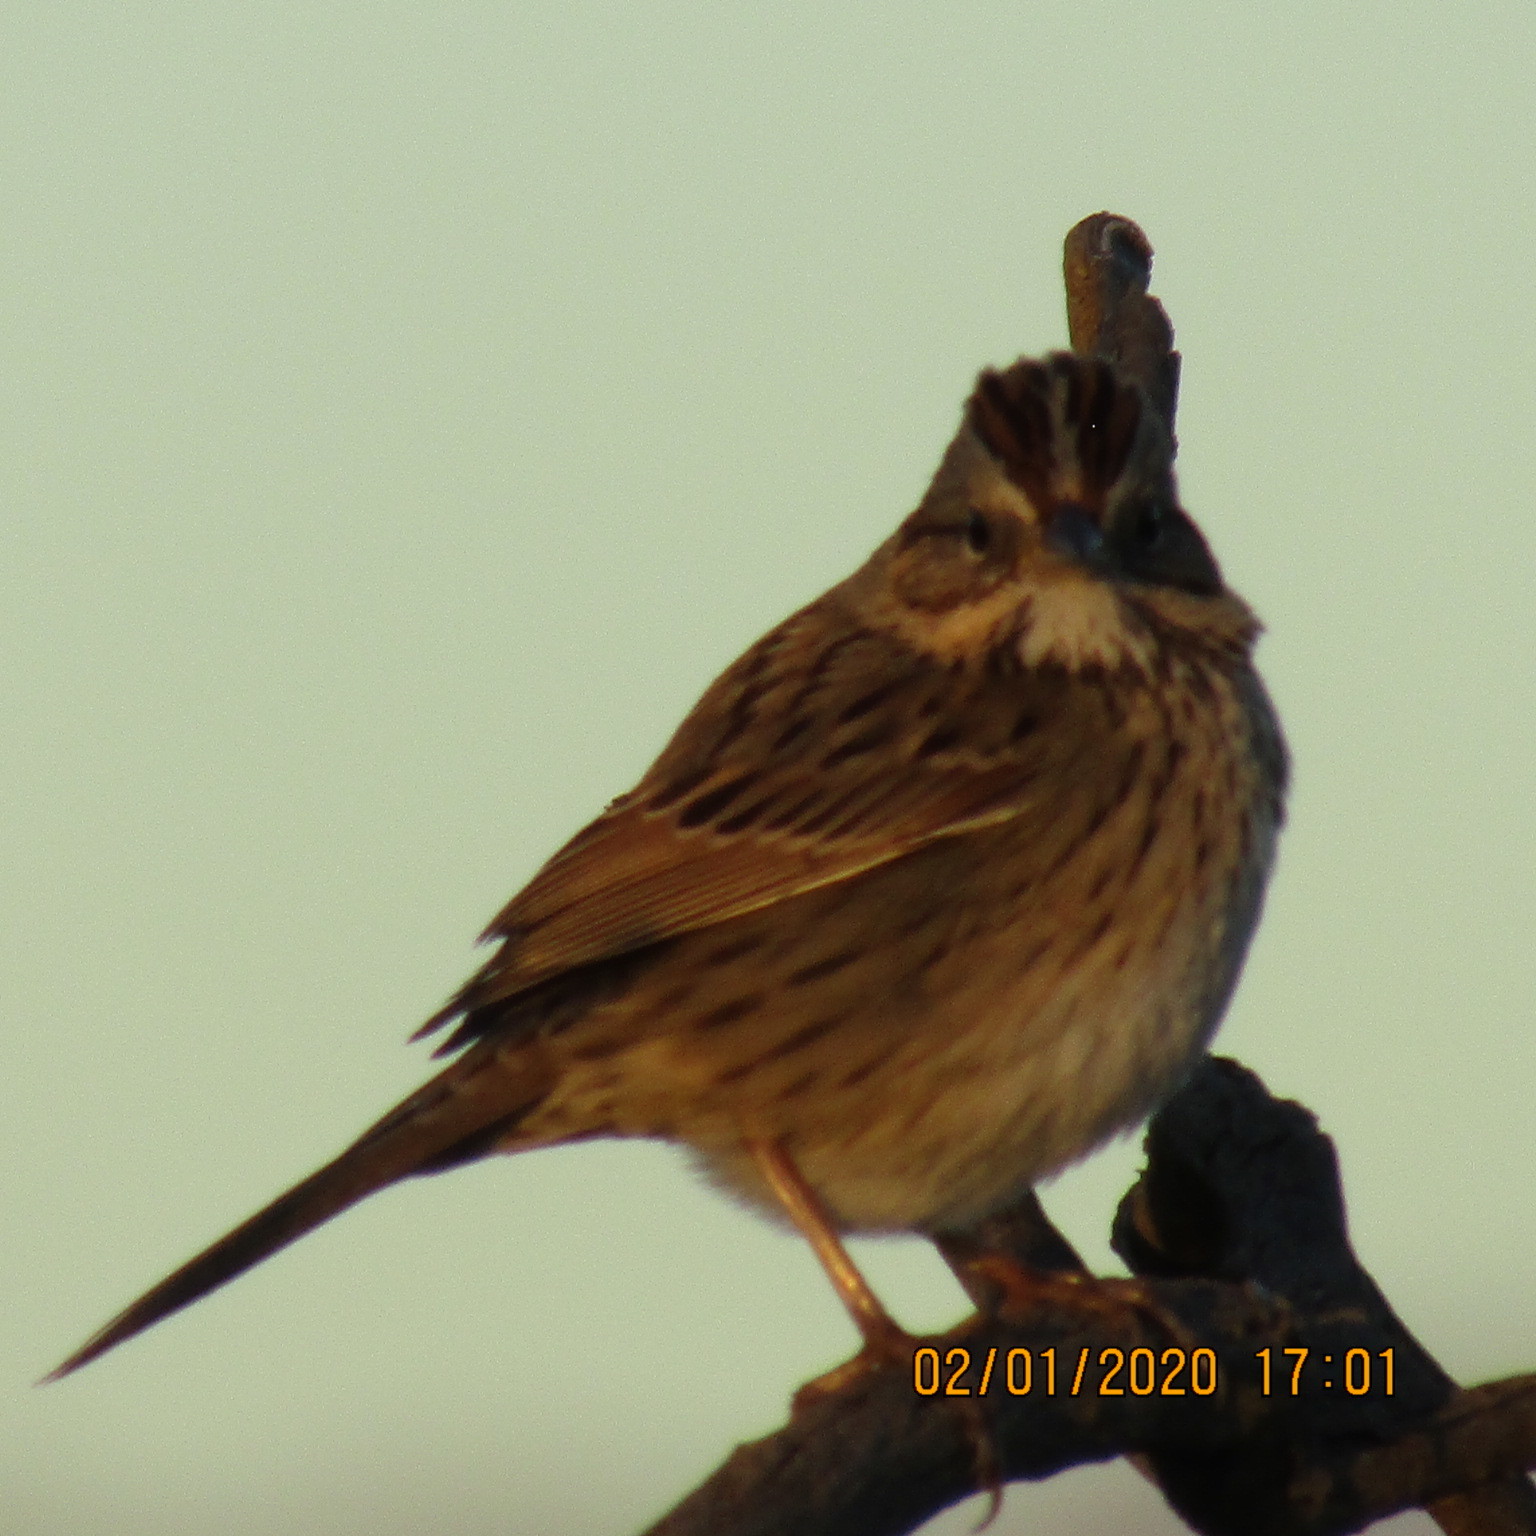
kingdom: Animalia
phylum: Chordata
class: Aves
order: Passeriformes
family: Passerellidae
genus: Melospiza
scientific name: Melospiza lincolnii
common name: Lincoln's sparrow
